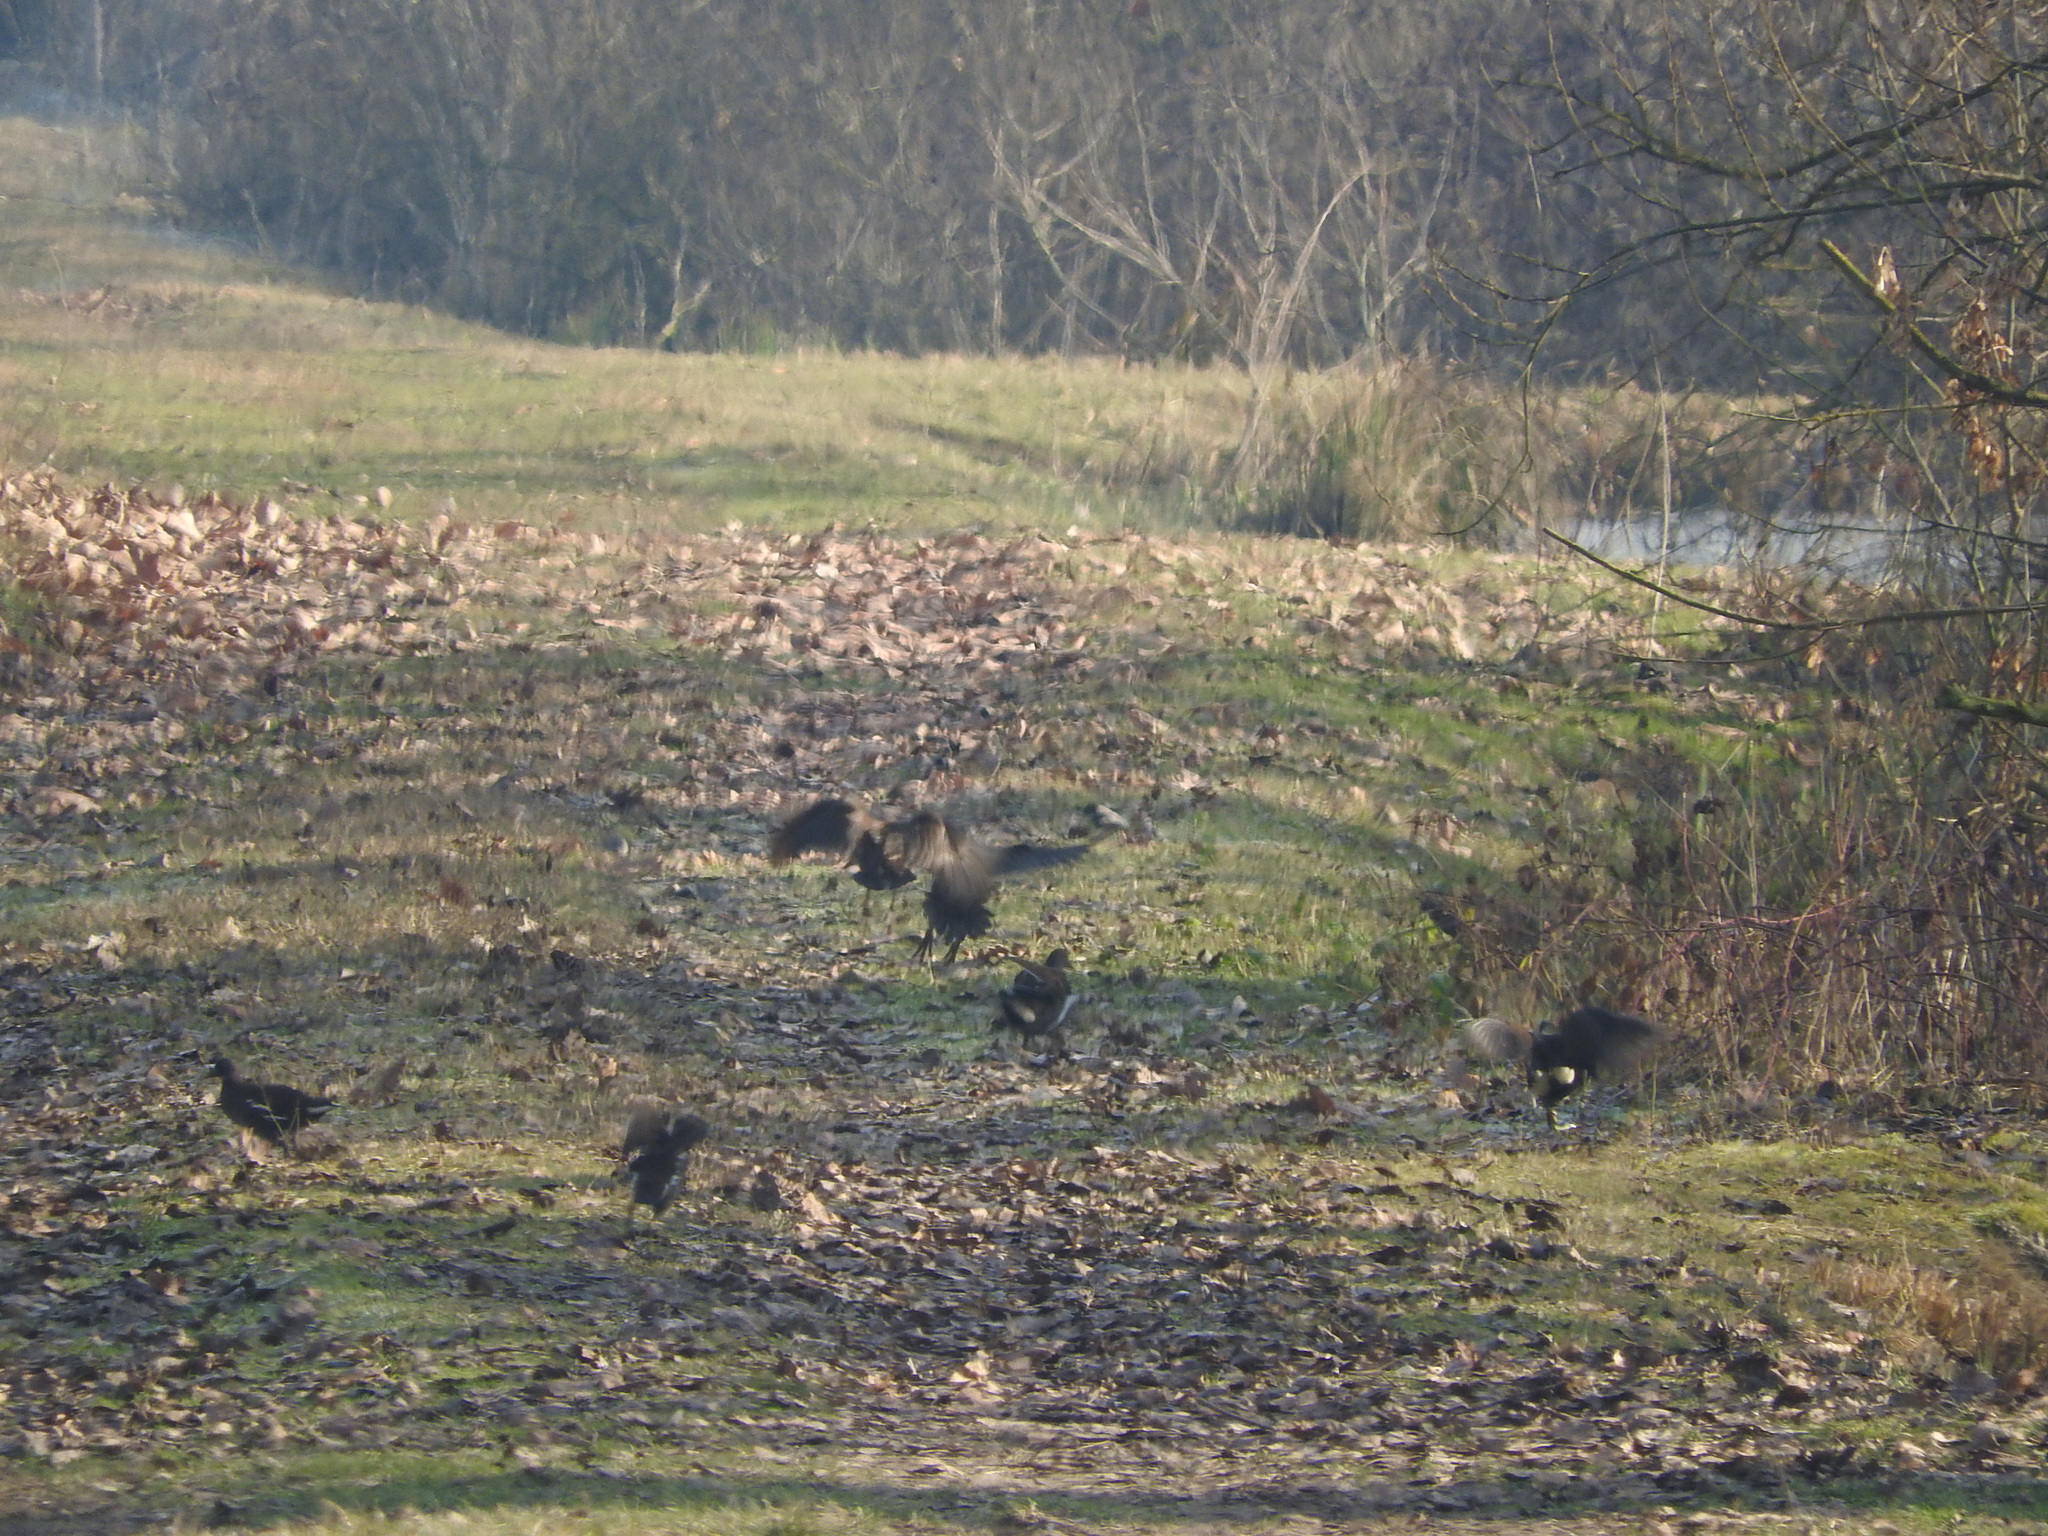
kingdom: Animalia
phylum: Chordata
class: Aves
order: Gruiformes
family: Rallidae
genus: Gallinula
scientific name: Gallinula chloropus
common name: Common moorhen
